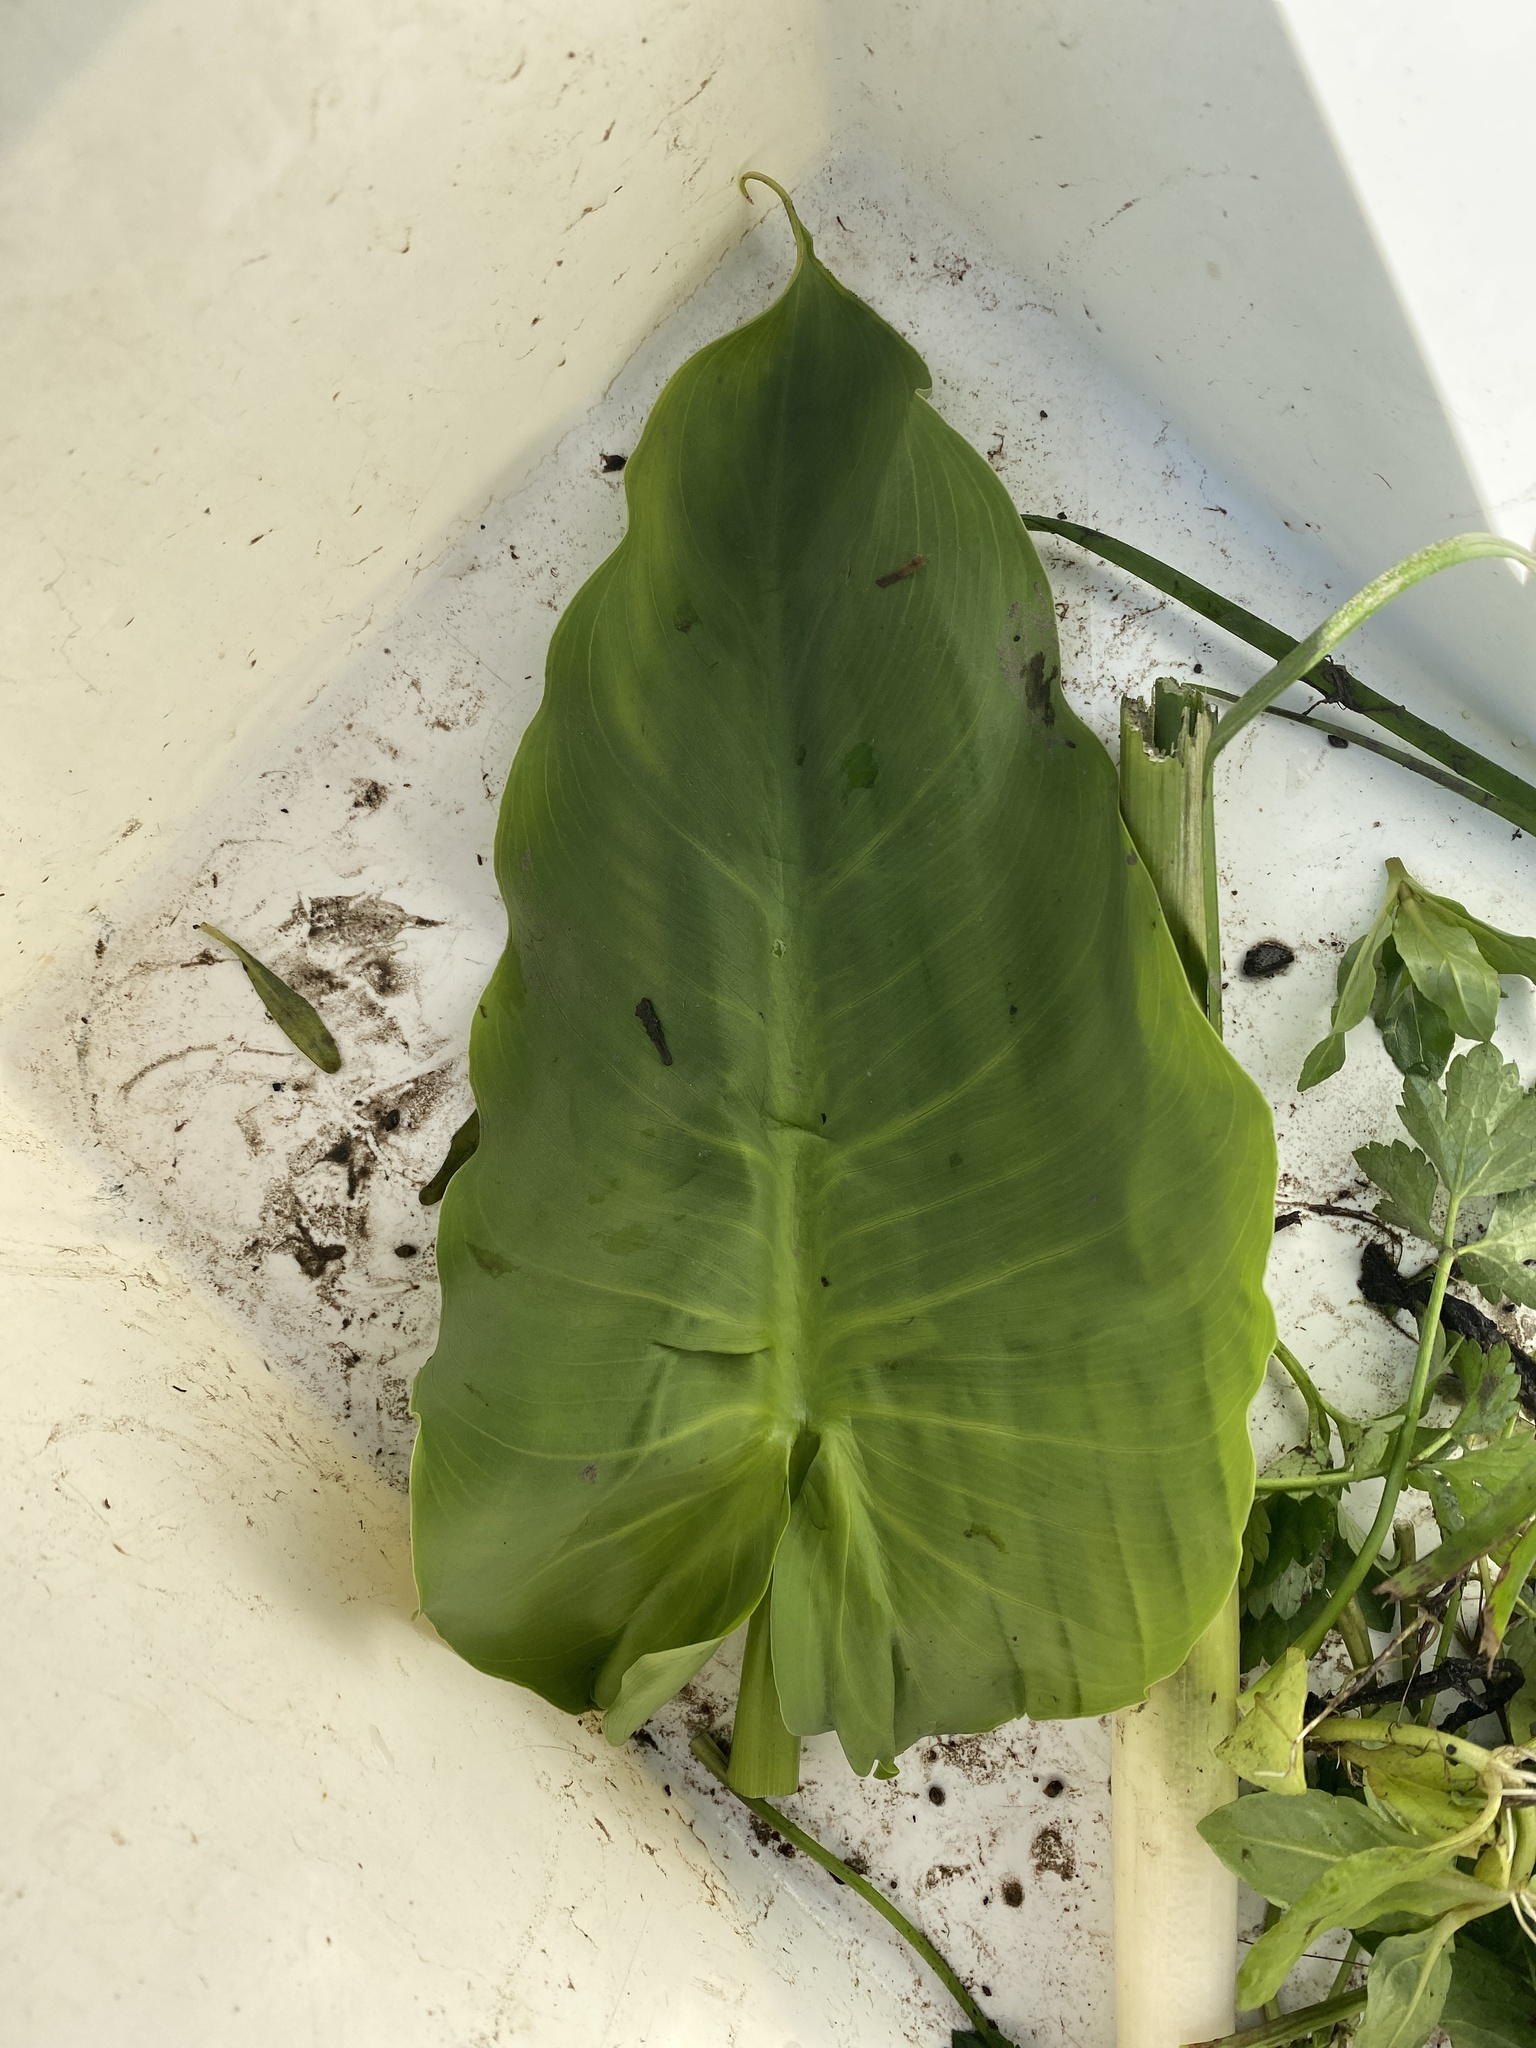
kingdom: Plantae
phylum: Tracheophyta
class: Liliopsida
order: Alismatales
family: Araceae
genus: Zantedeschia
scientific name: Zantedeschia aethiopica
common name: Altar-lily
